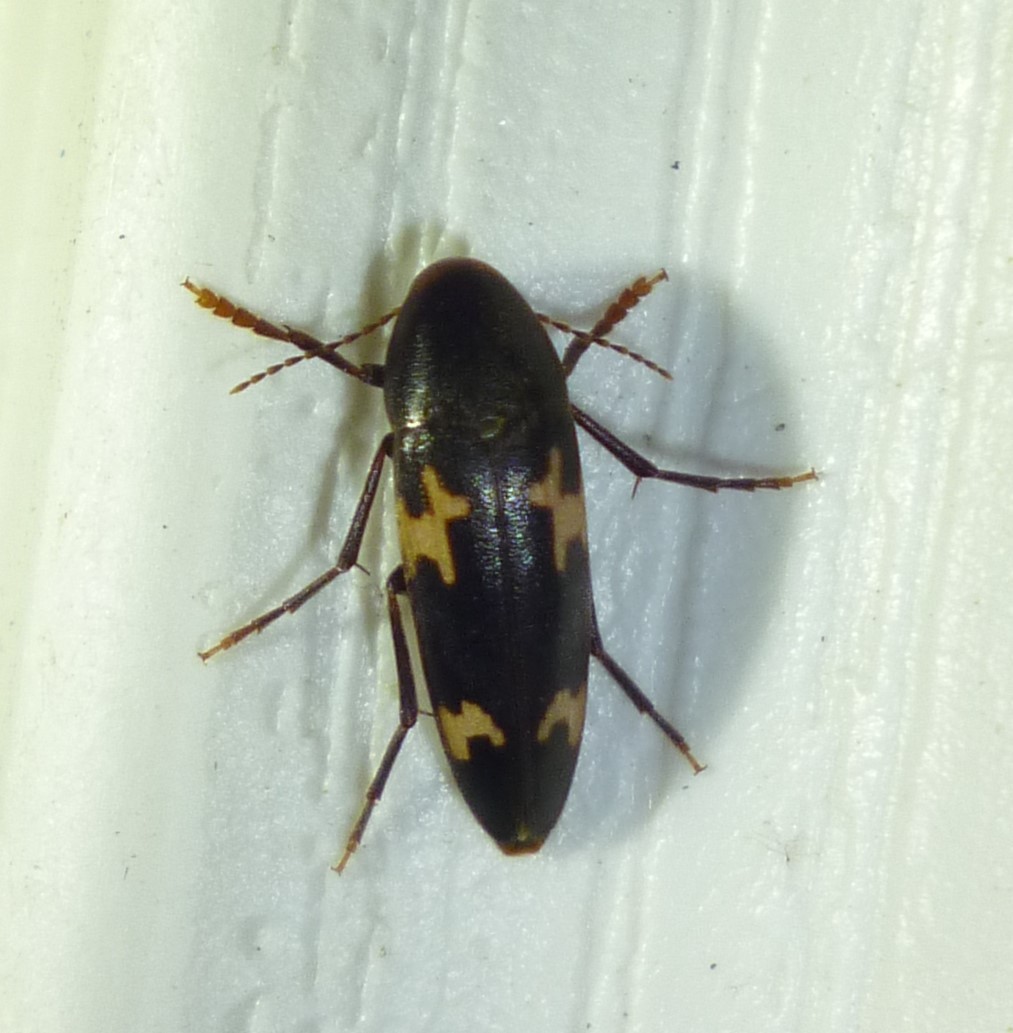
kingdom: Animalia
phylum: Arthropoda
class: Insecta
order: Coleoptera
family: Melandryidae
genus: Dircaea
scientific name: Dircaea liturata
